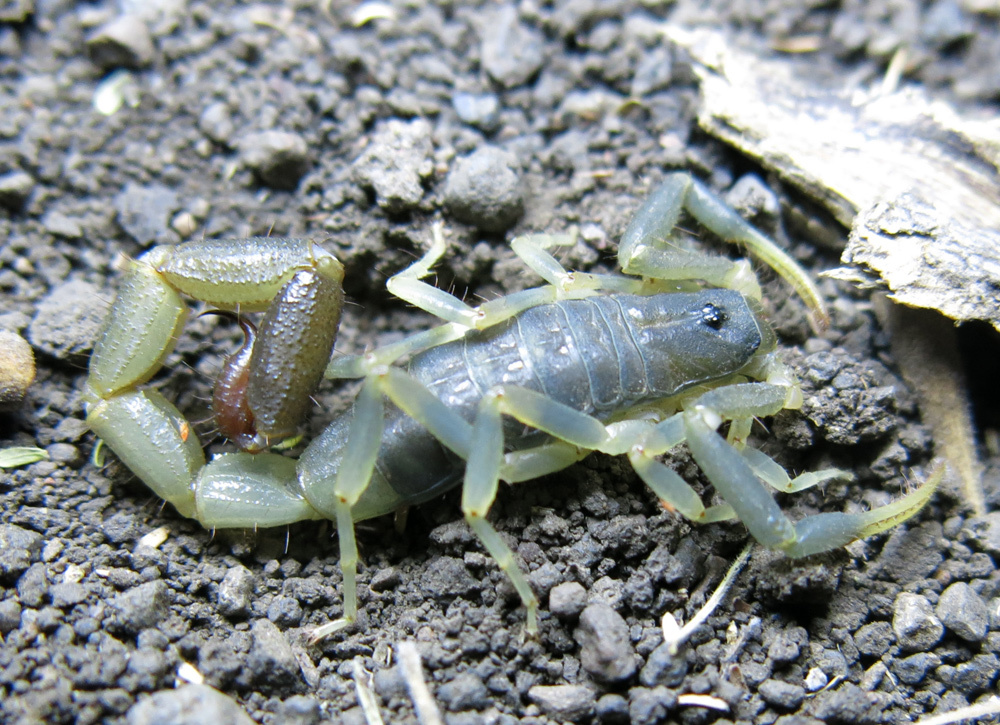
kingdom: Animalia
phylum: Arthropoda
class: Arachnida
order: Scorpiones
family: Buthidae
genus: Uroplectes
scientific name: Uroplectes olivaceus
